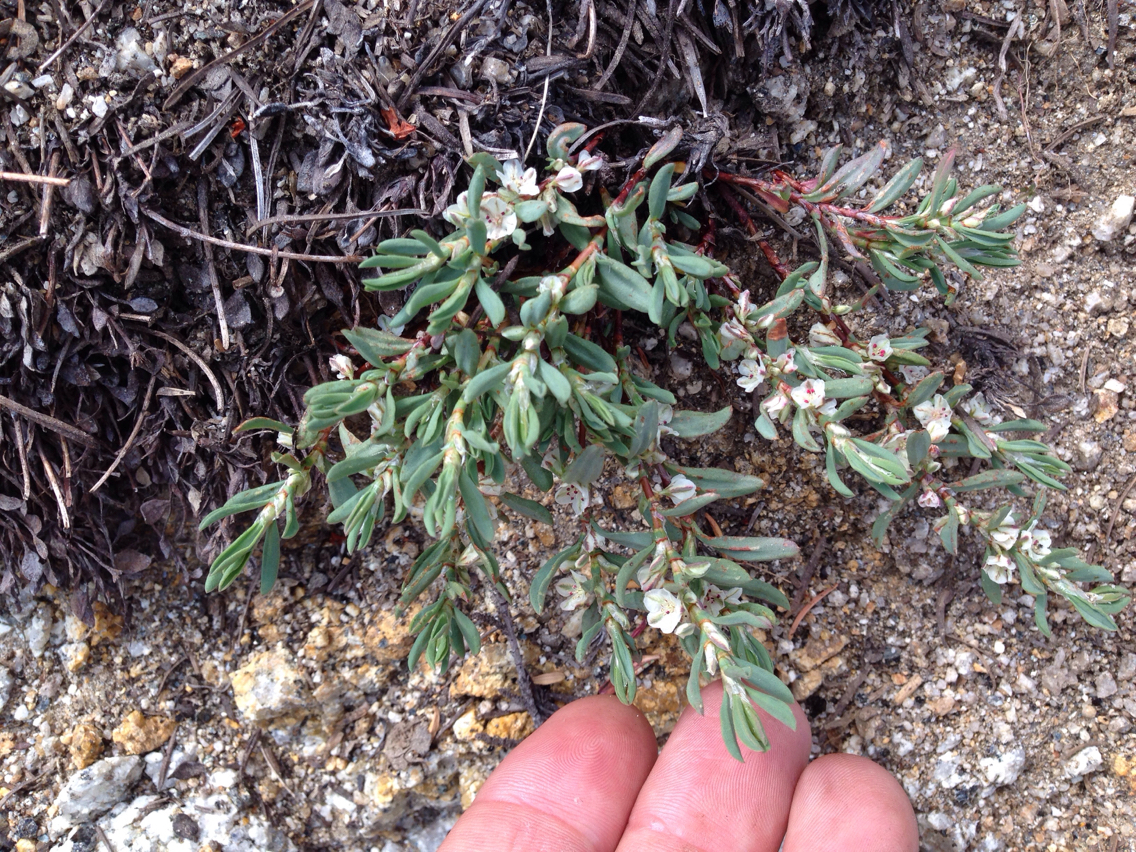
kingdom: Plantae
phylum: Tracheophyta
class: Magnoliopsida
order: Caryophyllales
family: Polygonaceae
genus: Polygonum
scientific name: Polygonum shastense
